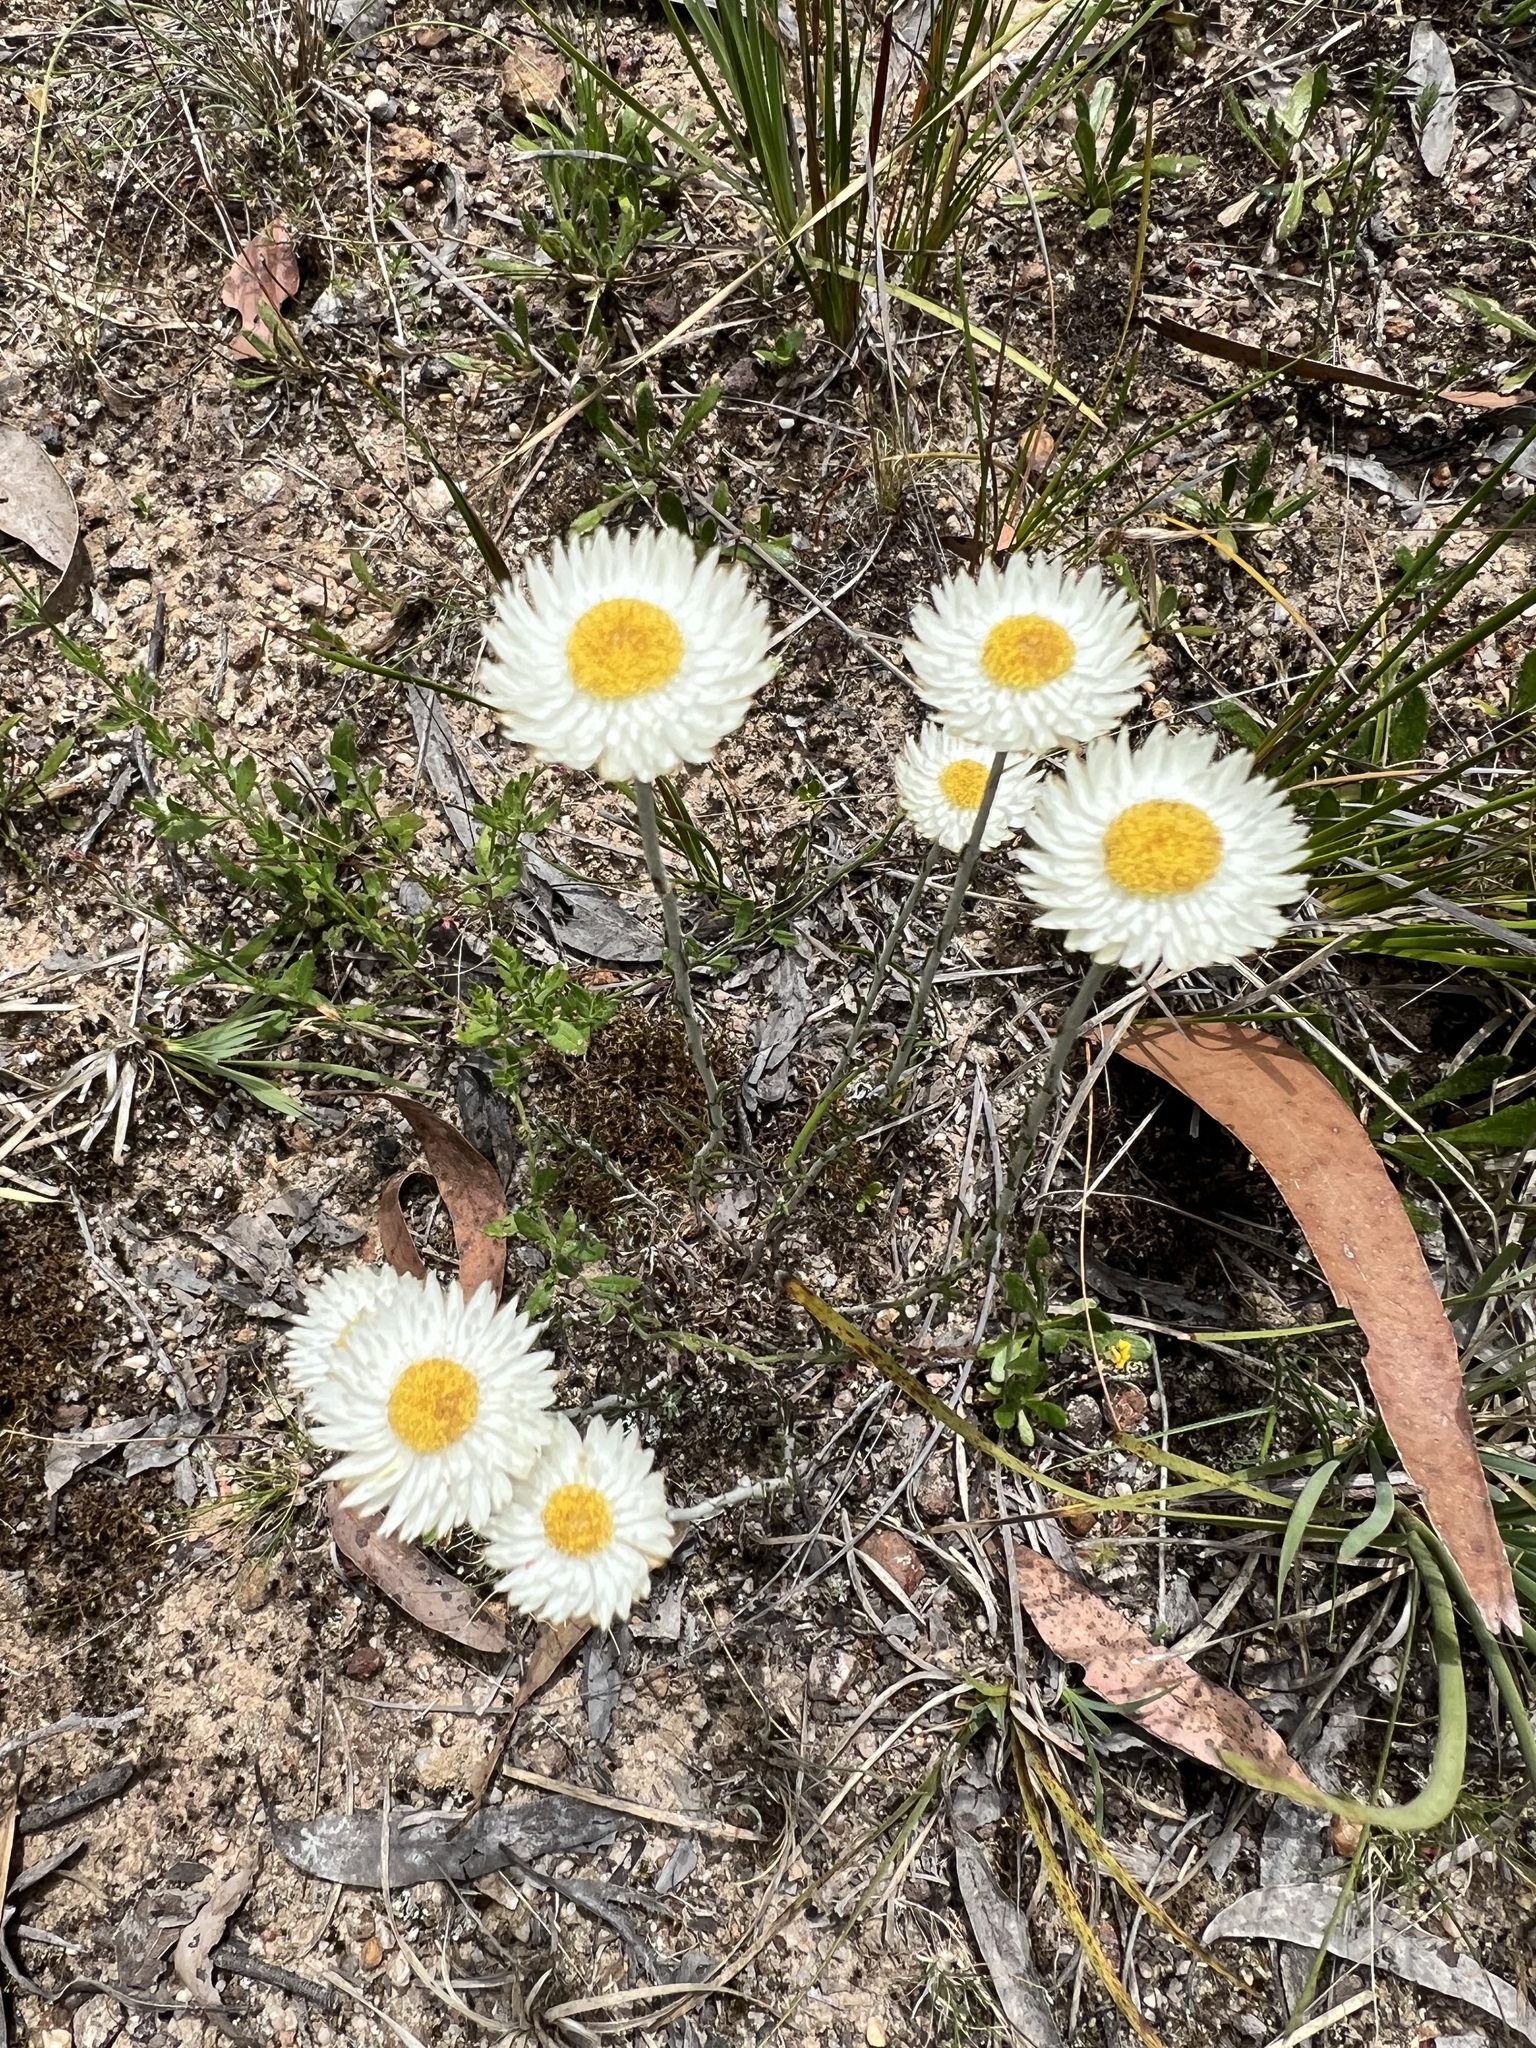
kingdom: Plantae
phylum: Tracheophyta
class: Magnoliopsida
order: Asterales
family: Asteraceae
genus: Chrysocephalum
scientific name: Chrysocephalum baxteri
